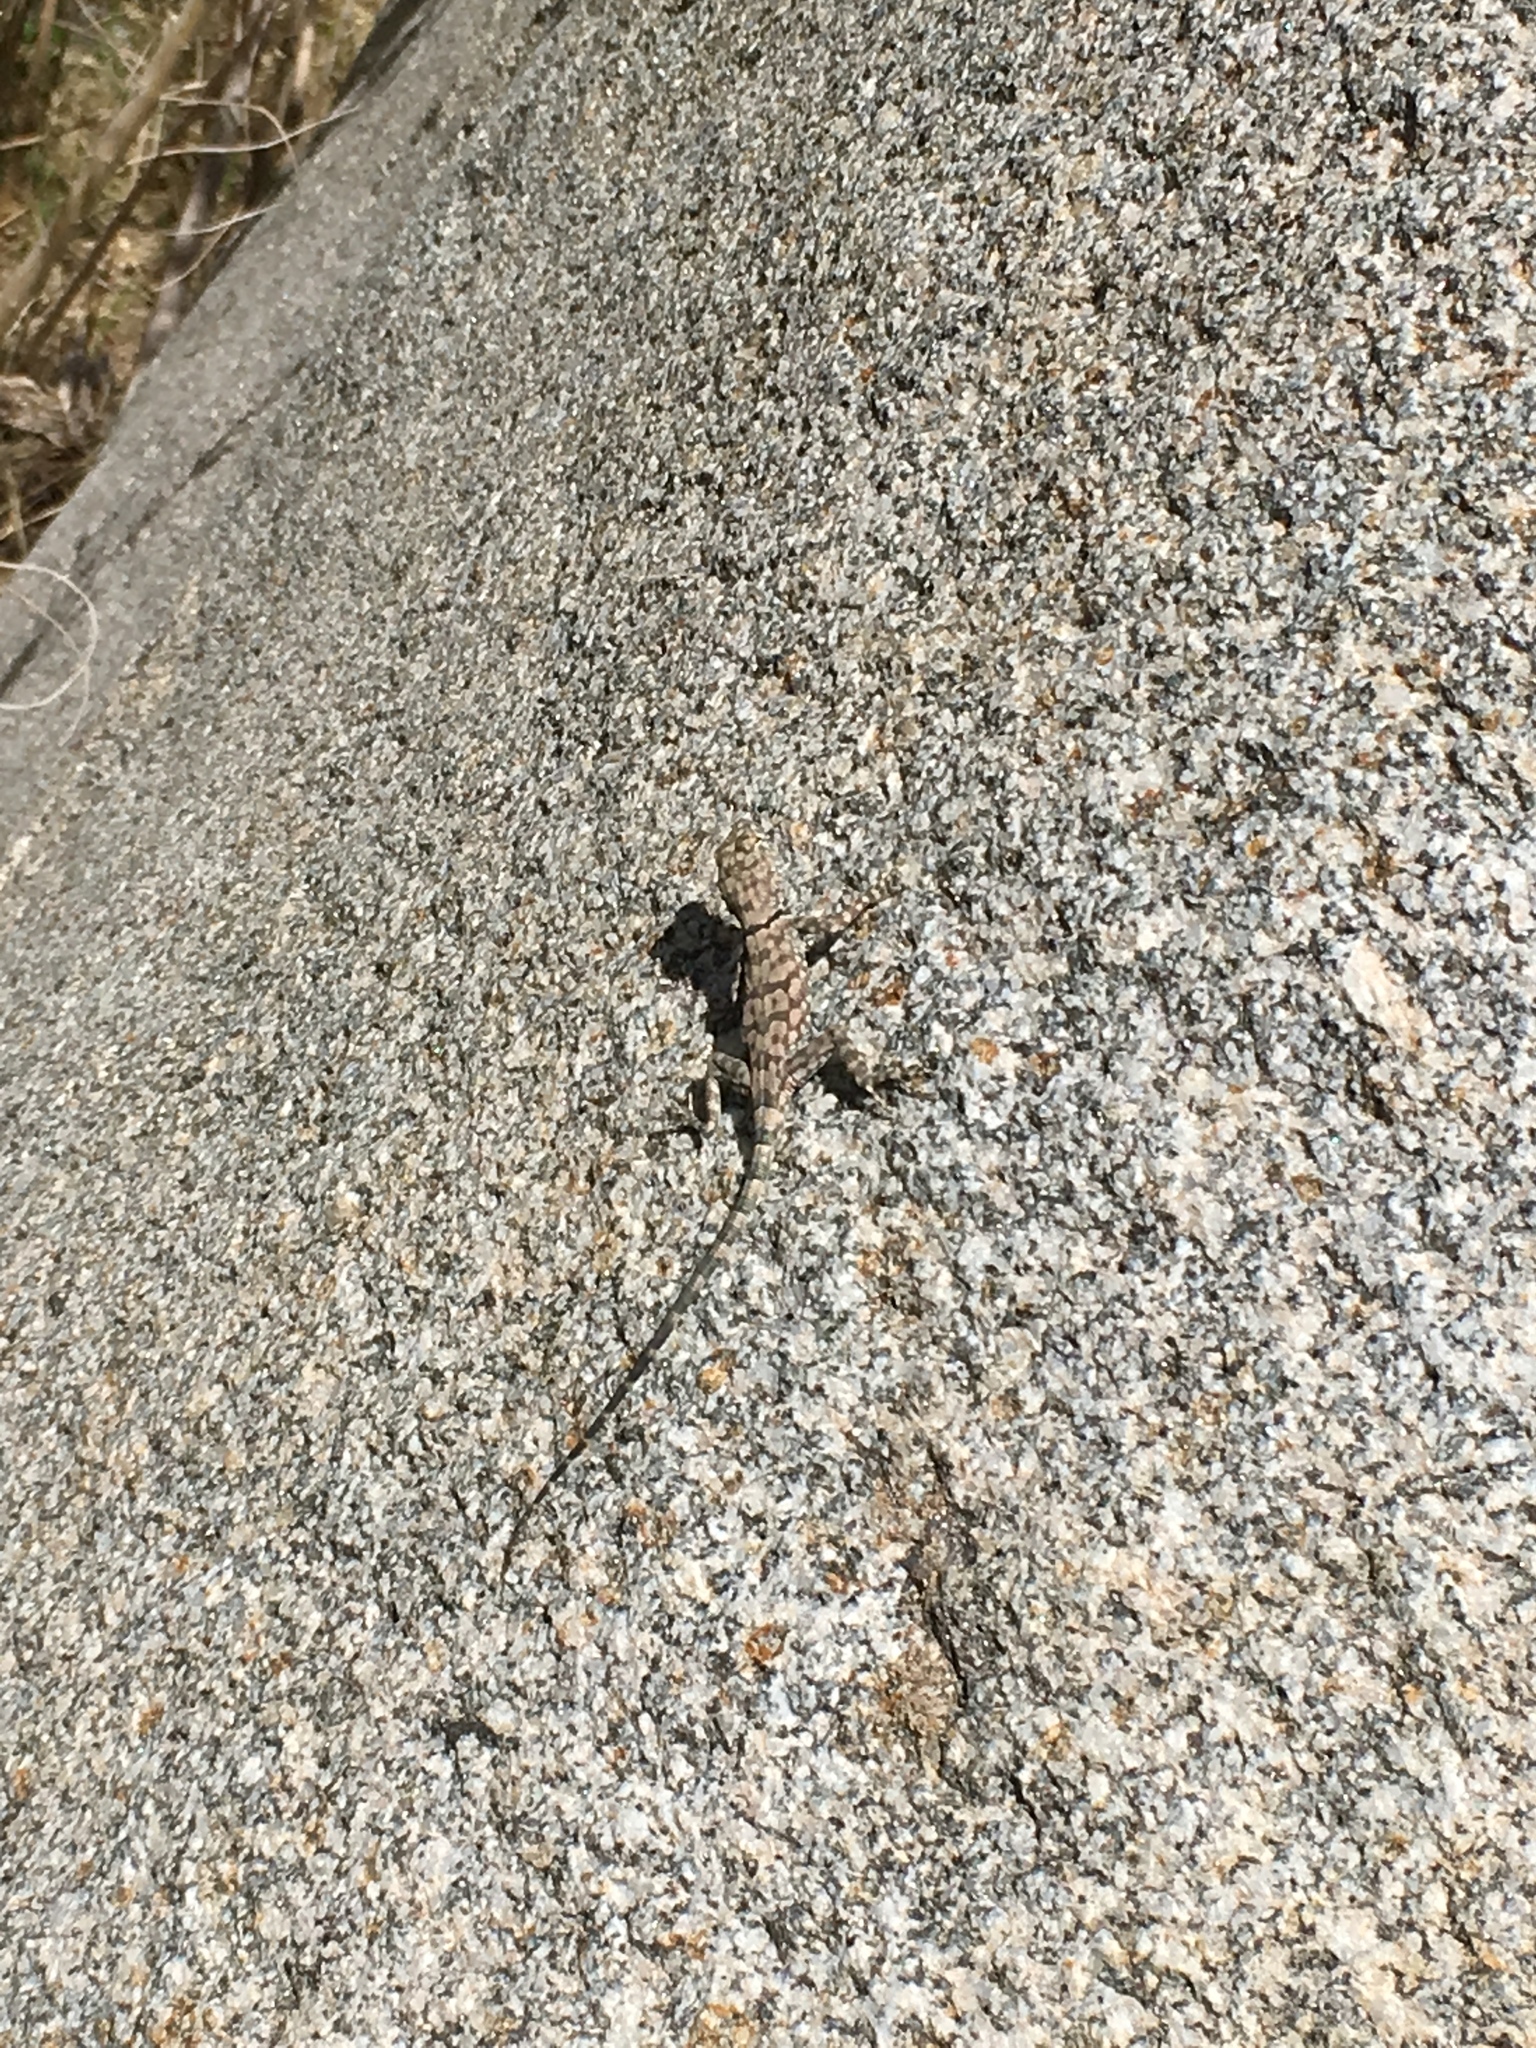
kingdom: Animalia
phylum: Chordata
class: Squamata
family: Phrynosomatidae
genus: Petrosaurus
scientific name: Petrosaurus mearnsi
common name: Banded rock lizard
